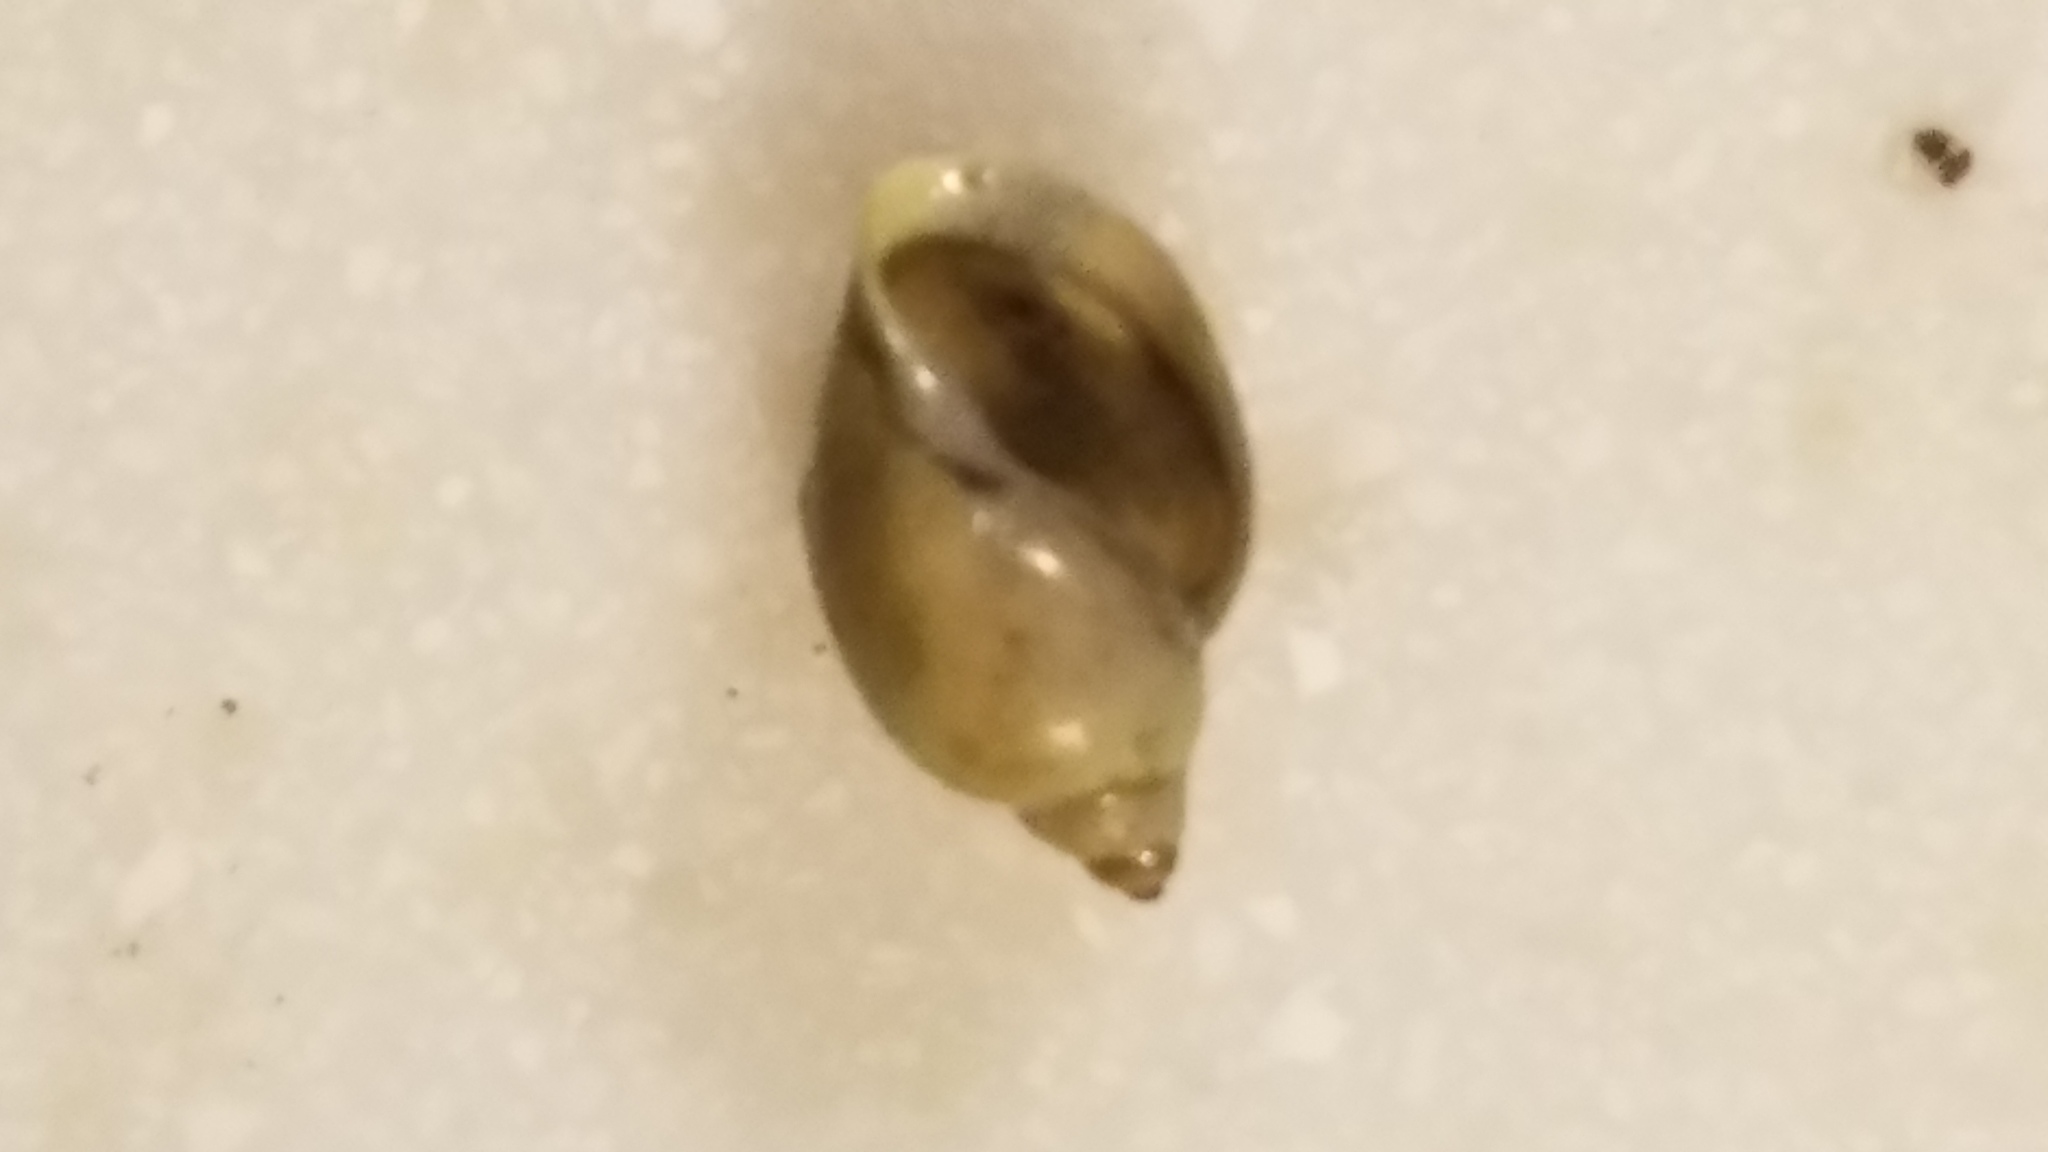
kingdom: Animalia
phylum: Mollusca
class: Gastropoda
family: Physidae
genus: Physella
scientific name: Physella
